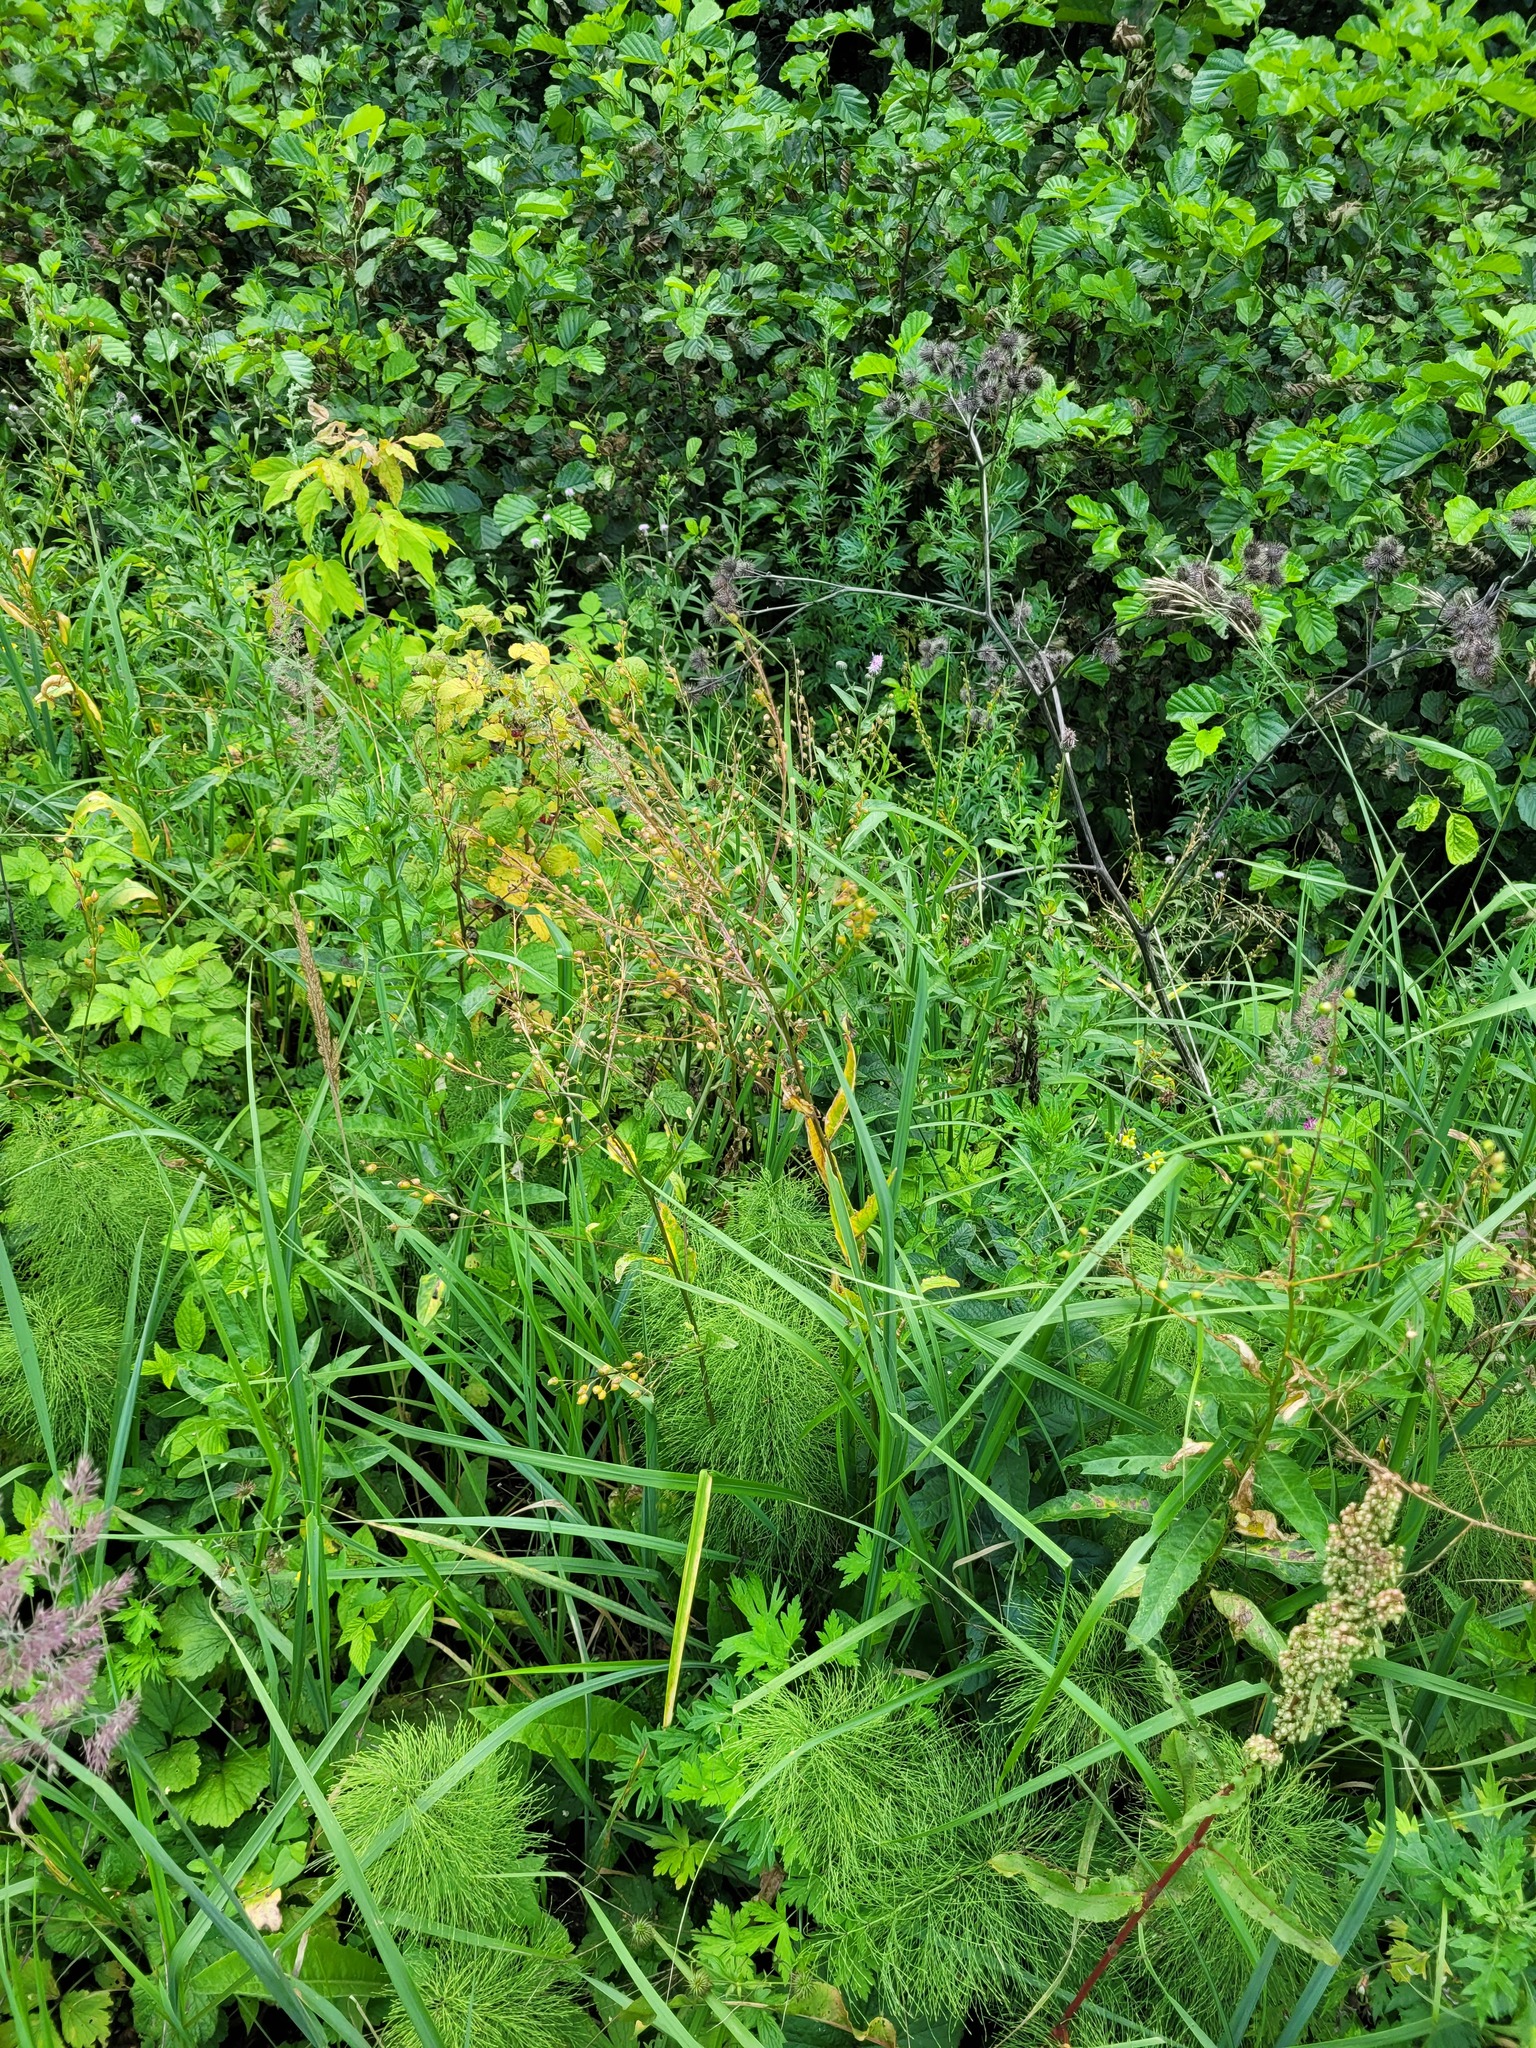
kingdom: Plantae
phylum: Tracheophyta
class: Magnoliopsida
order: Brassicales
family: Brassicaceae
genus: Bunias
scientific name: Bunias orientalis
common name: Warty-cabbage
